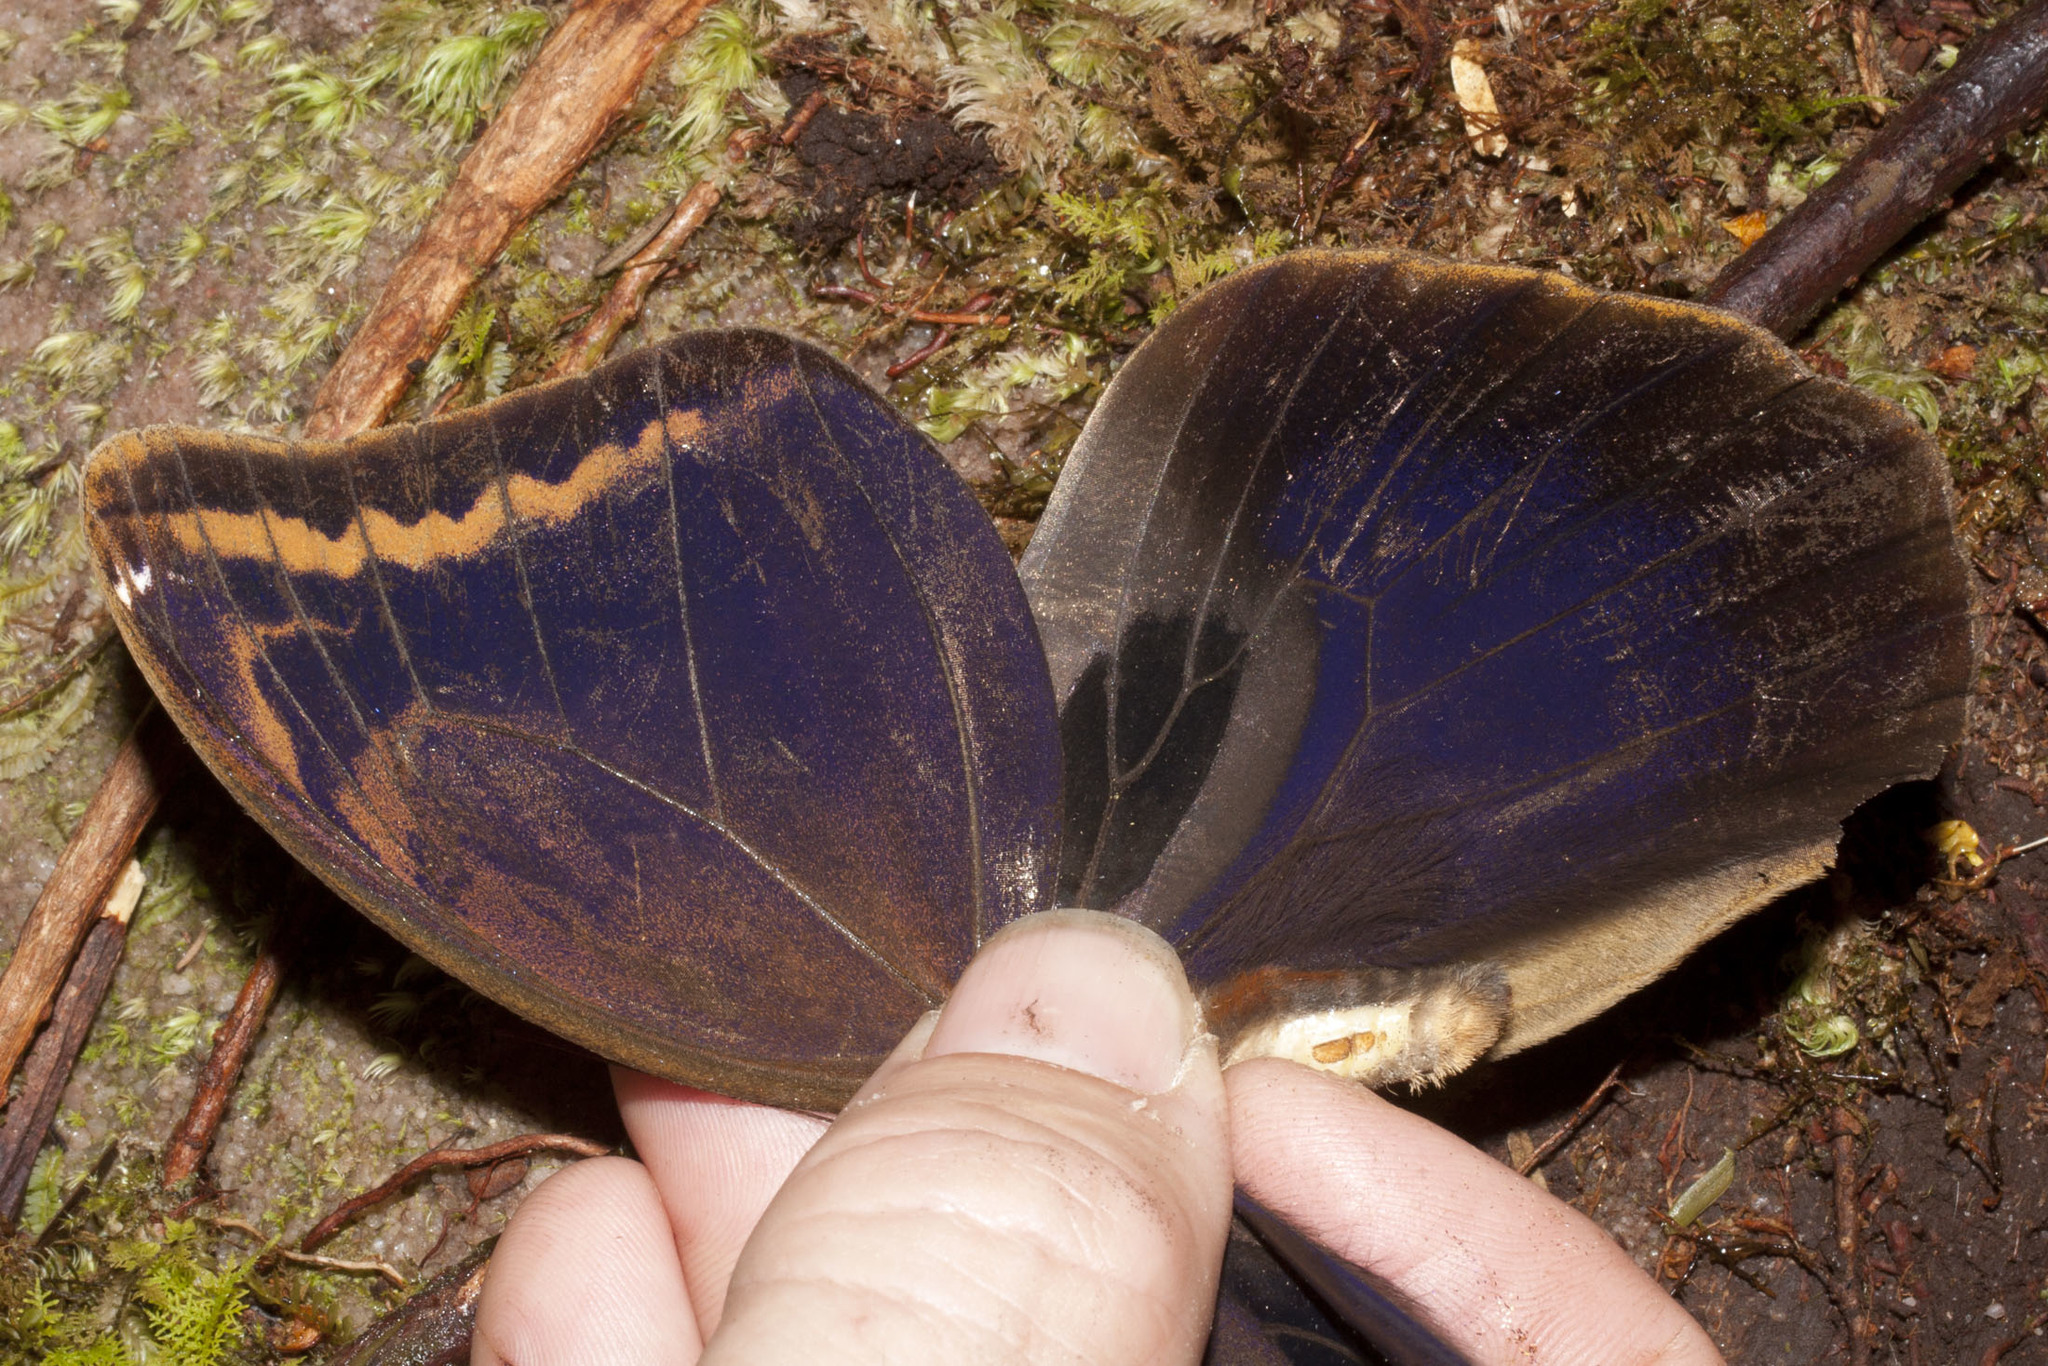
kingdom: Animalia
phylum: Arthropoda
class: Insecta
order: Lepidoptera
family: Nymphalidae
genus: Caligopsis
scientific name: Caligopsis seleucida
